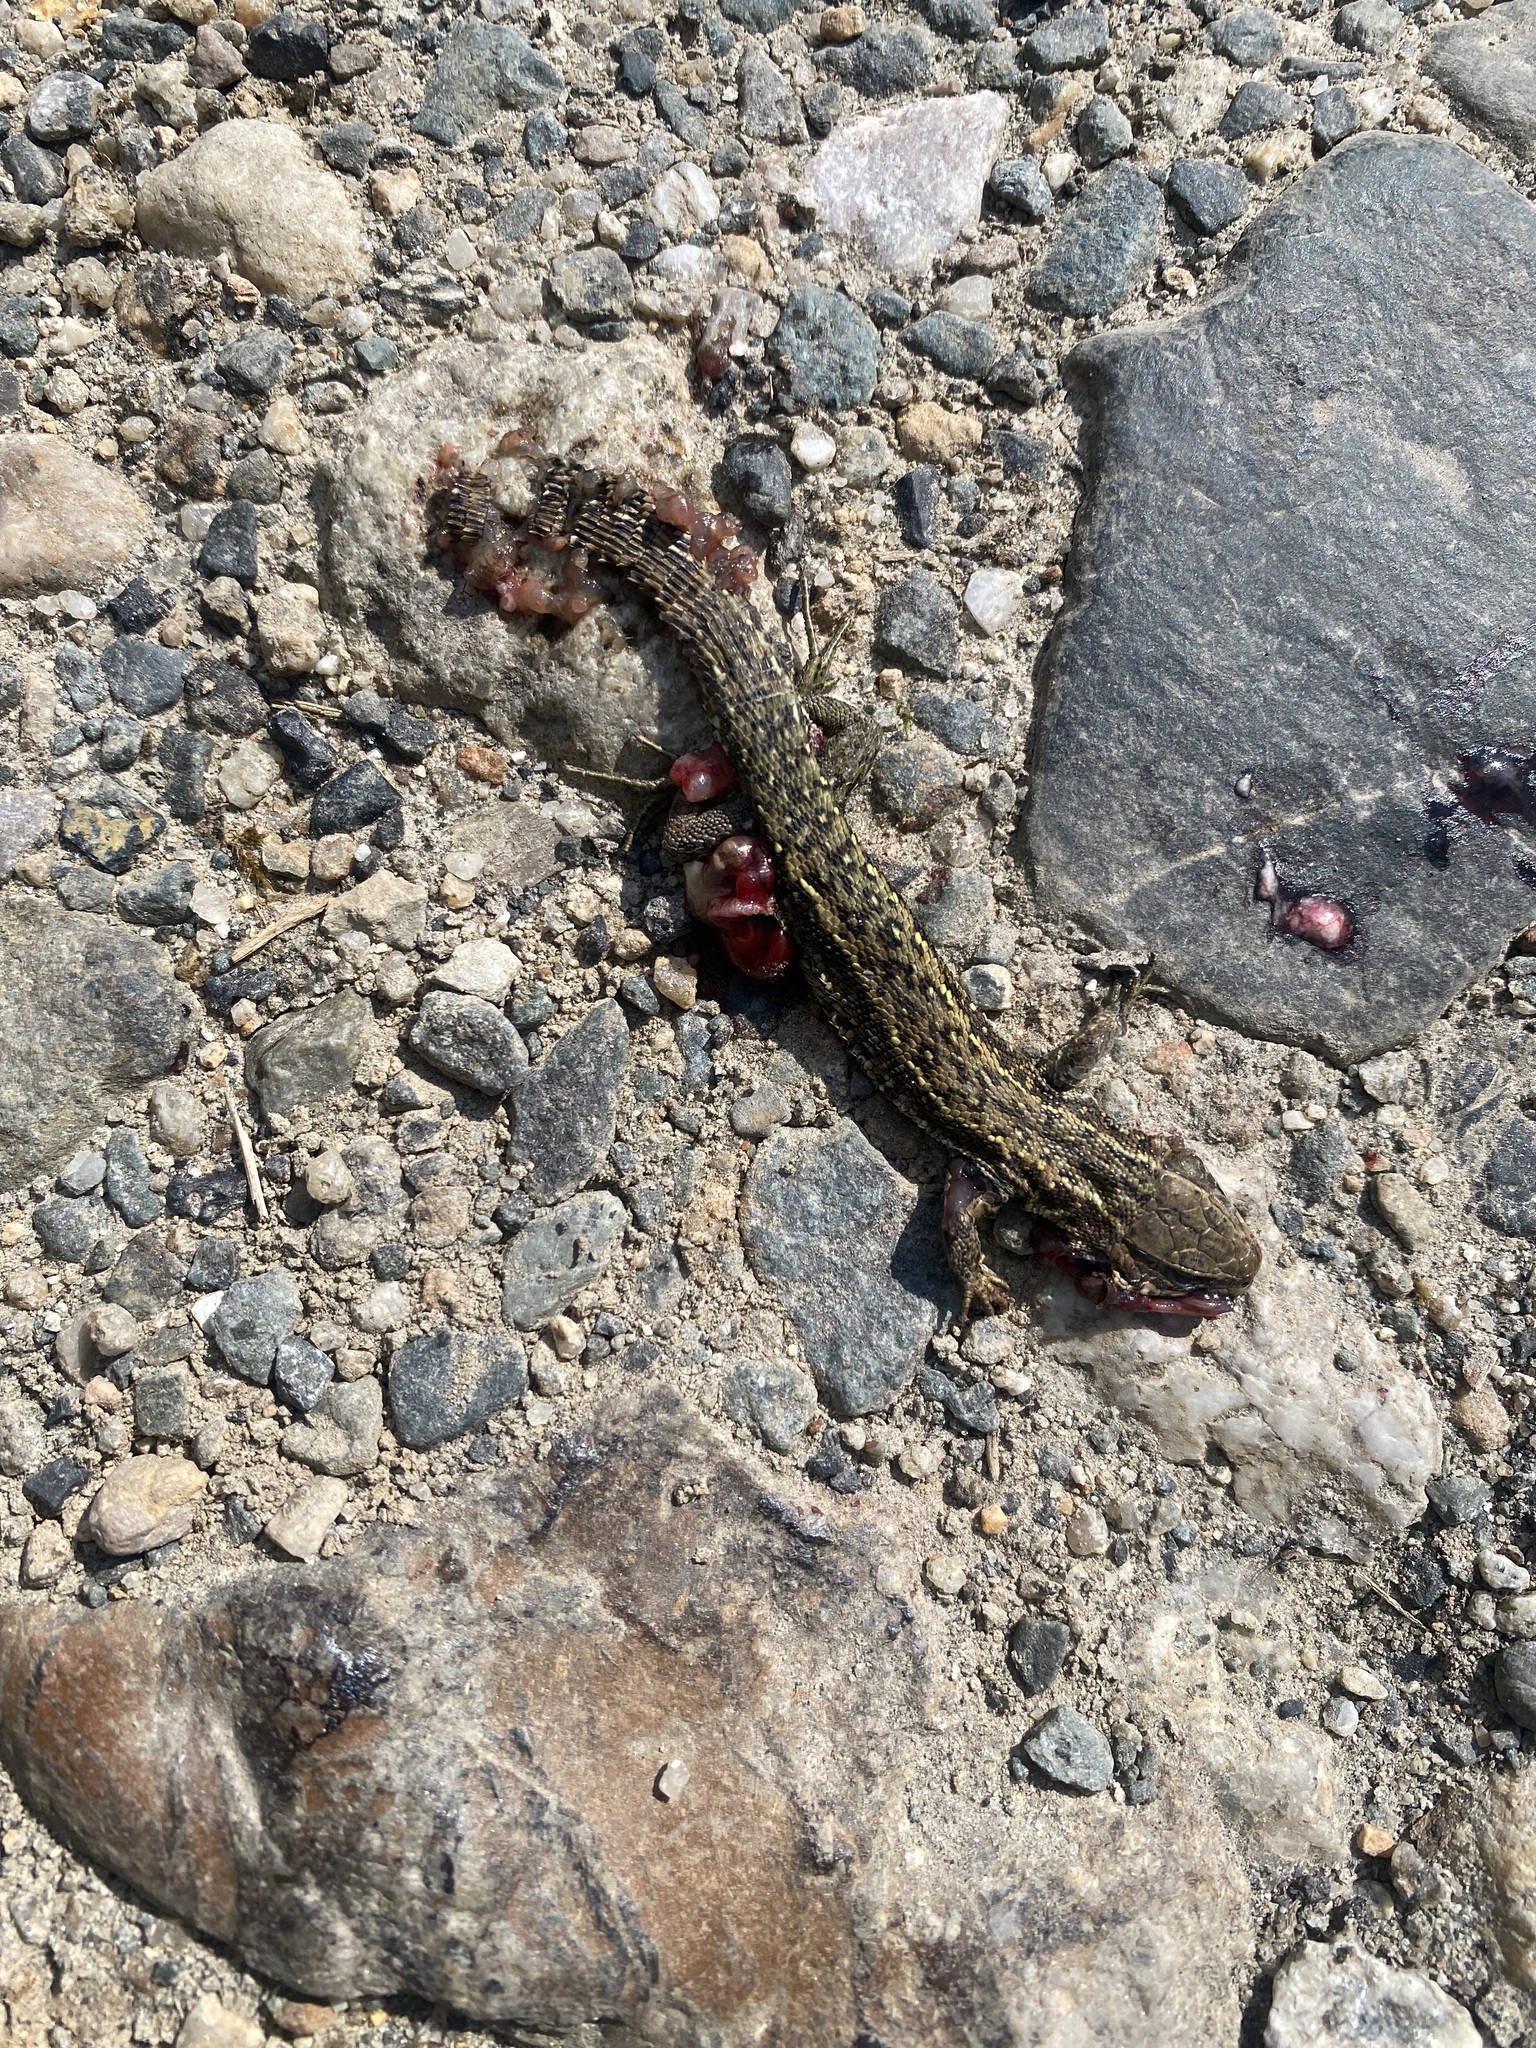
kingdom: Animalia
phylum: Chordata
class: Squamata
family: Lacertidae
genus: Zootoca
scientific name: Zootoca vivipara
